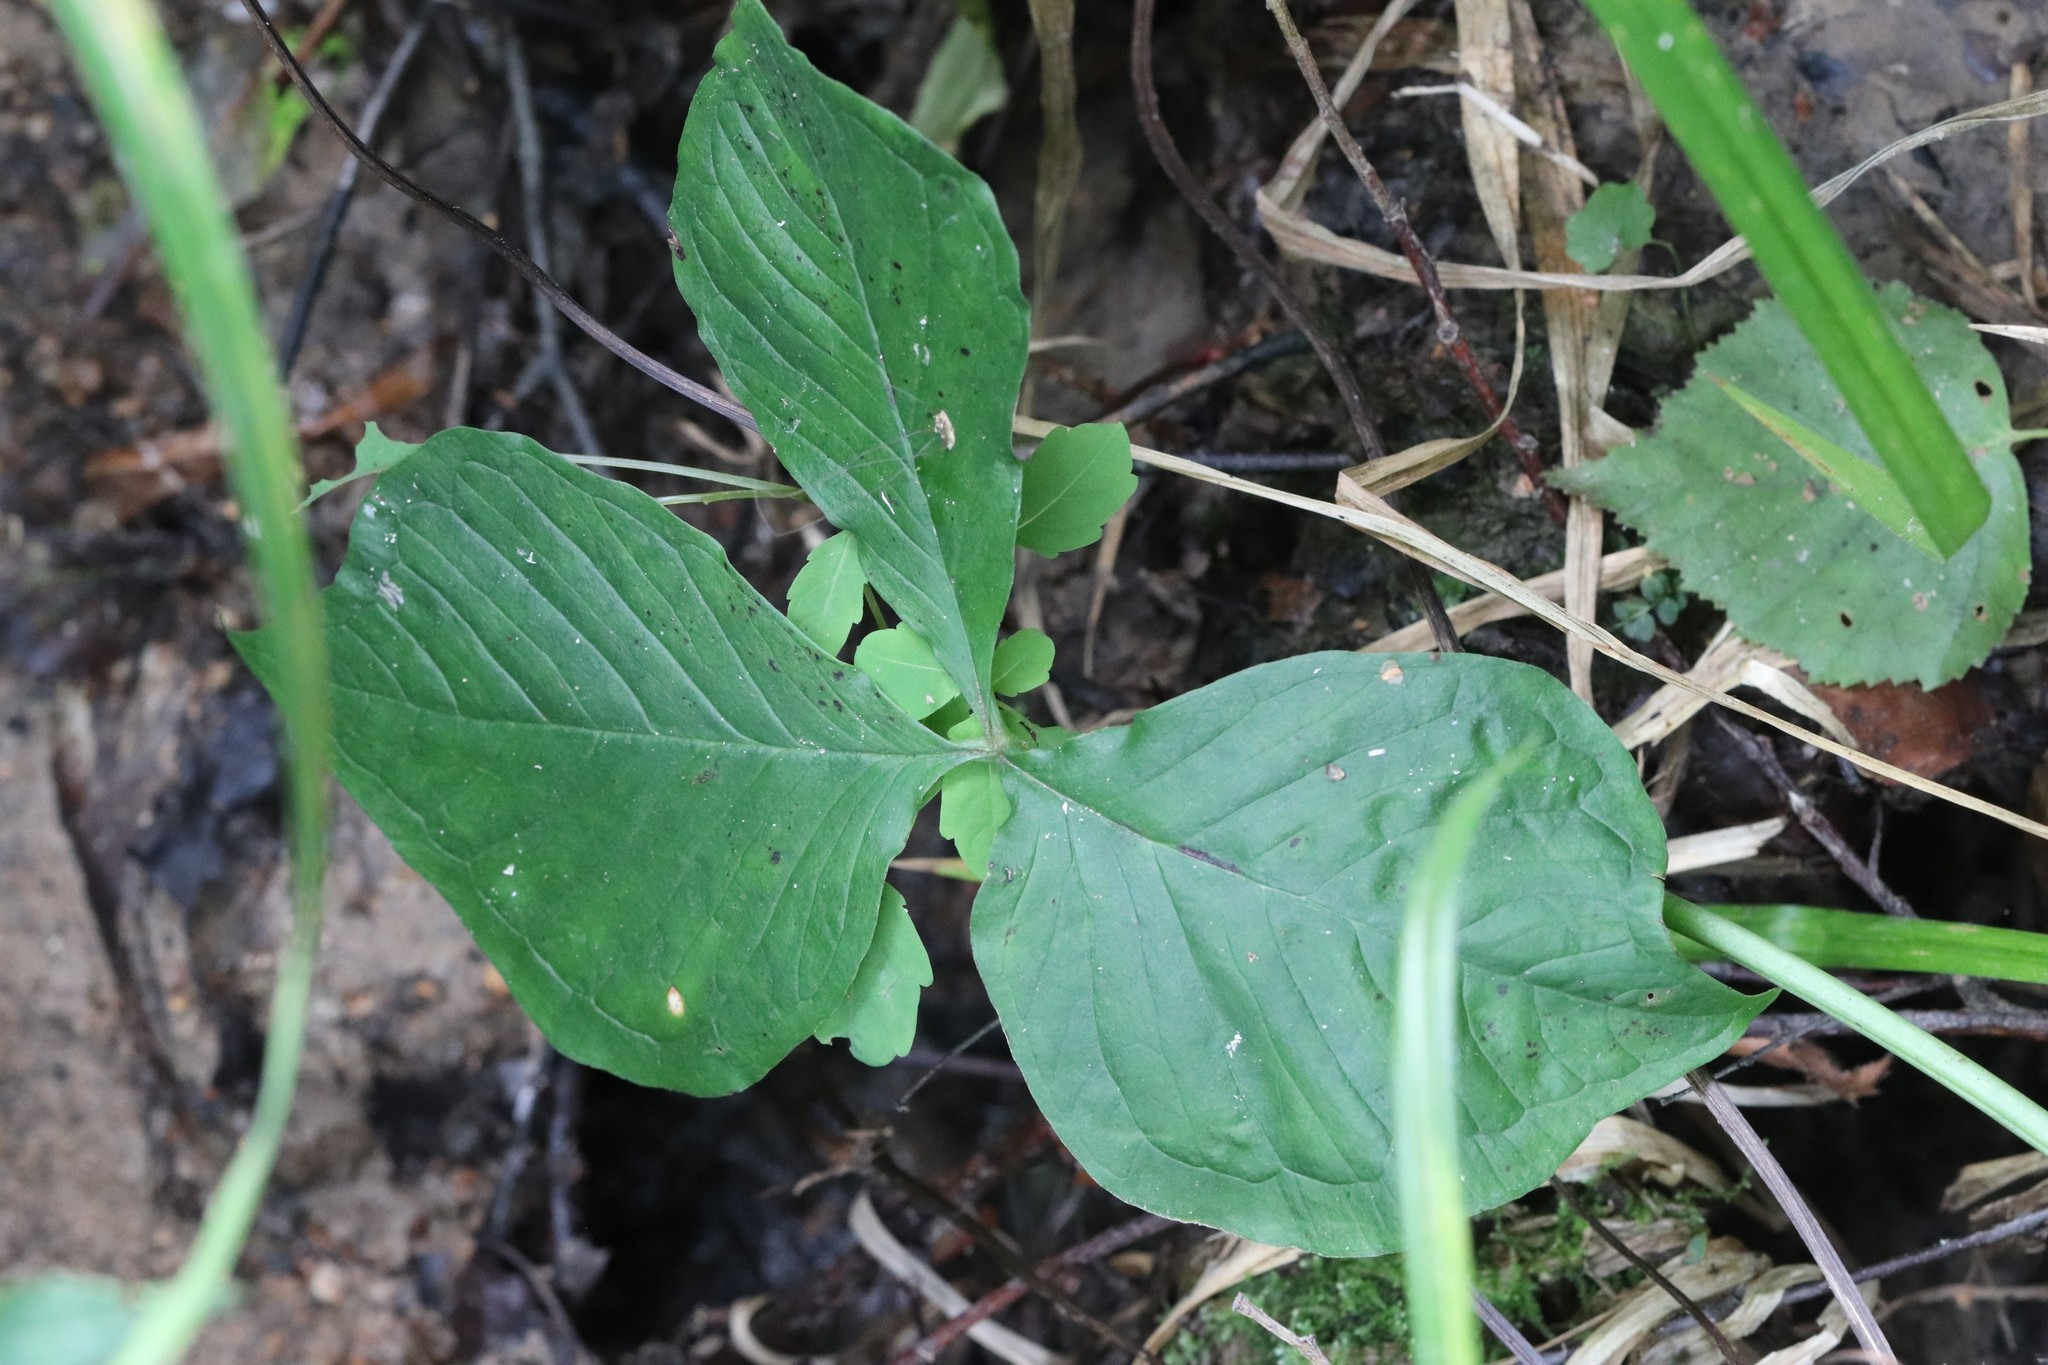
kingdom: Plantae
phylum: Tracheophyta
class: Liliopsida
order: Alismatales
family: Araceae
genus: Arisaema
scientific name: Arisaema amurense
